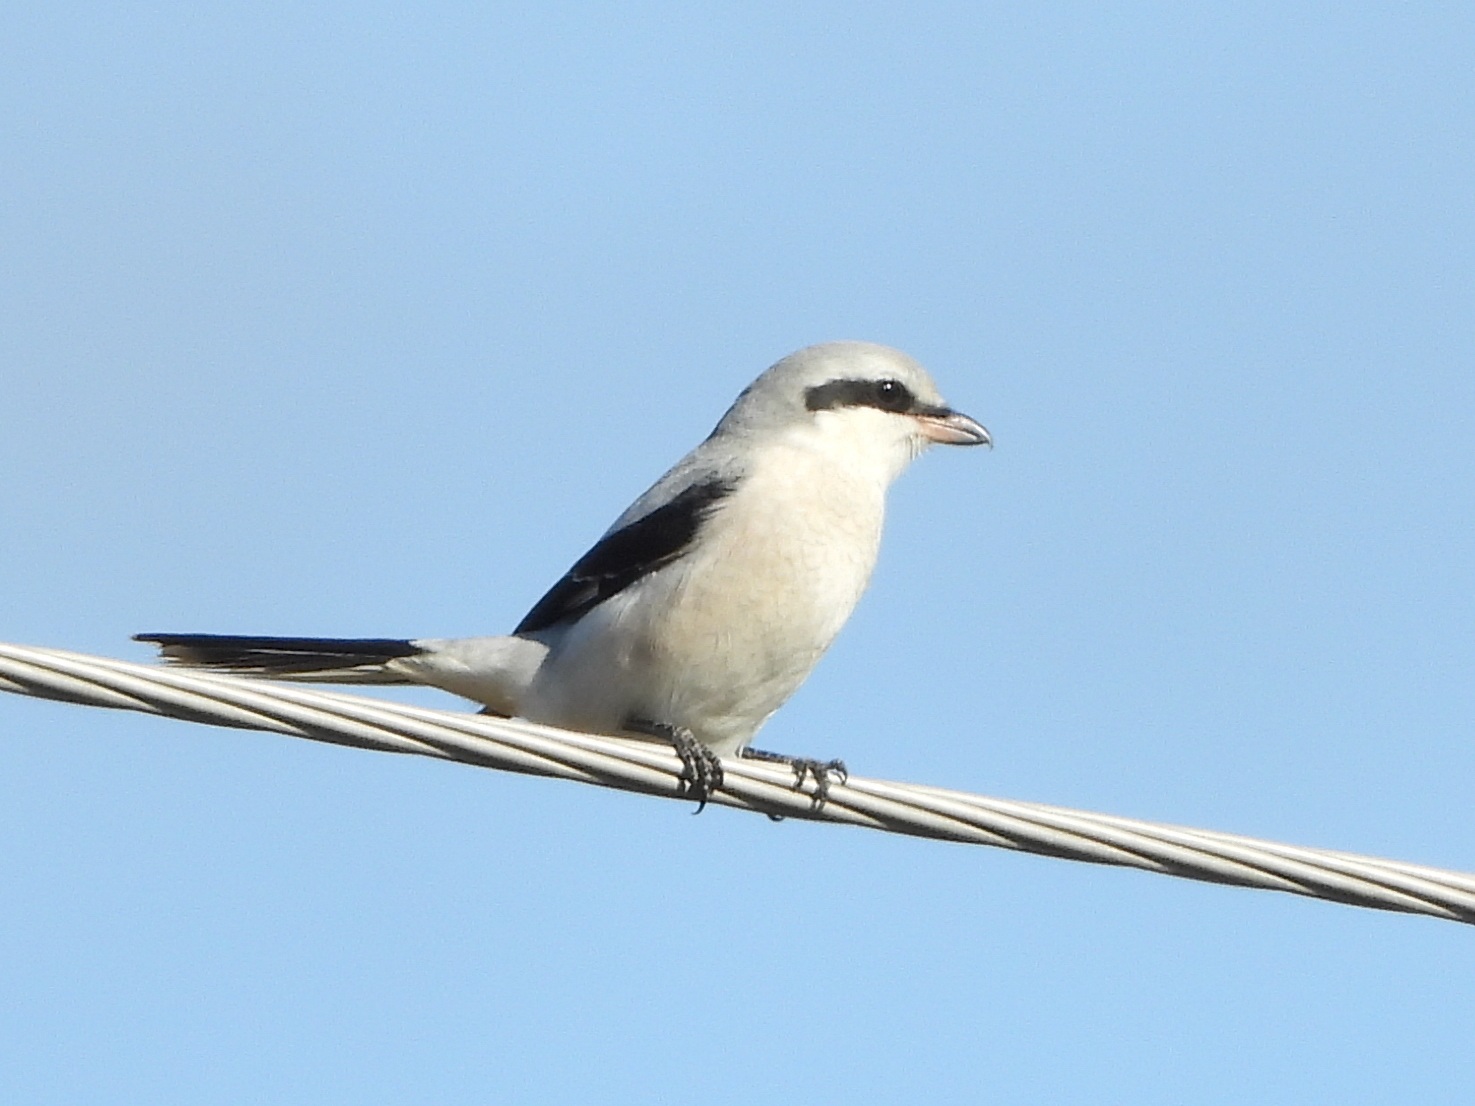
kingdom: Animalia
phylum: Chordata
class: Aves
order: Passeriformes
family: Laniidae
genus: Lanius
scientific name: Lanius excubitor
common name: Great grey shrike
